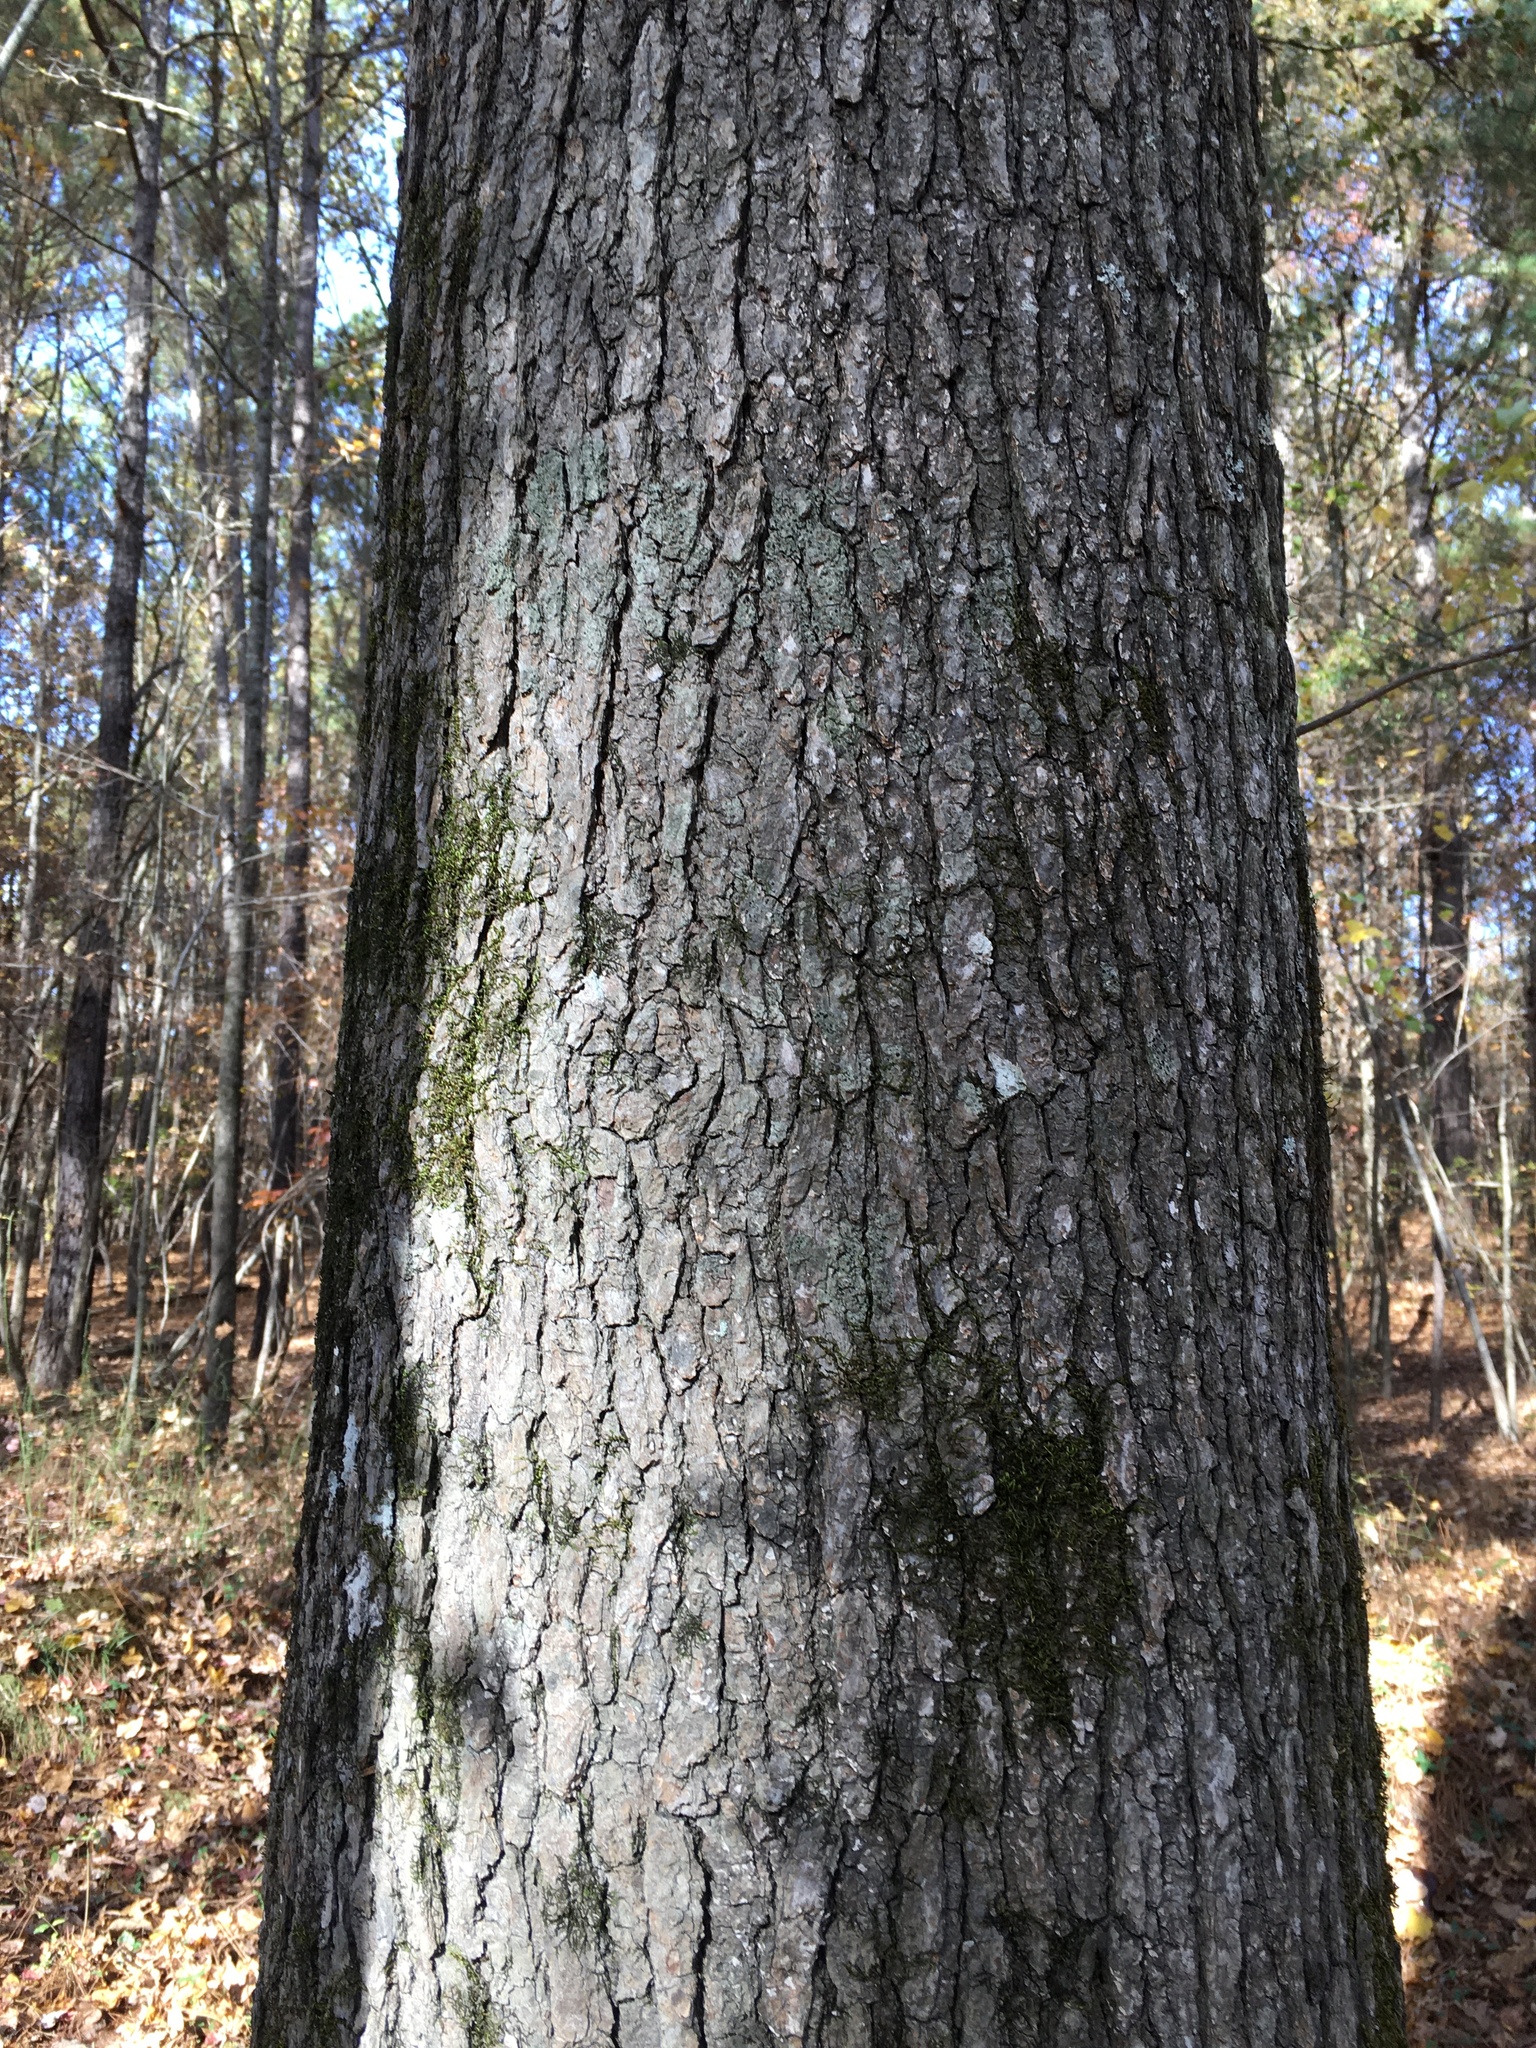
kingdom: Plantae
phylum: Tracheophyta
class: Magnoliopsida
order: Saxifragales
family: Altingiaceae
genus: Liquidambar
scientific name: Liquidambar styraciflua
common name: Sweet gum
